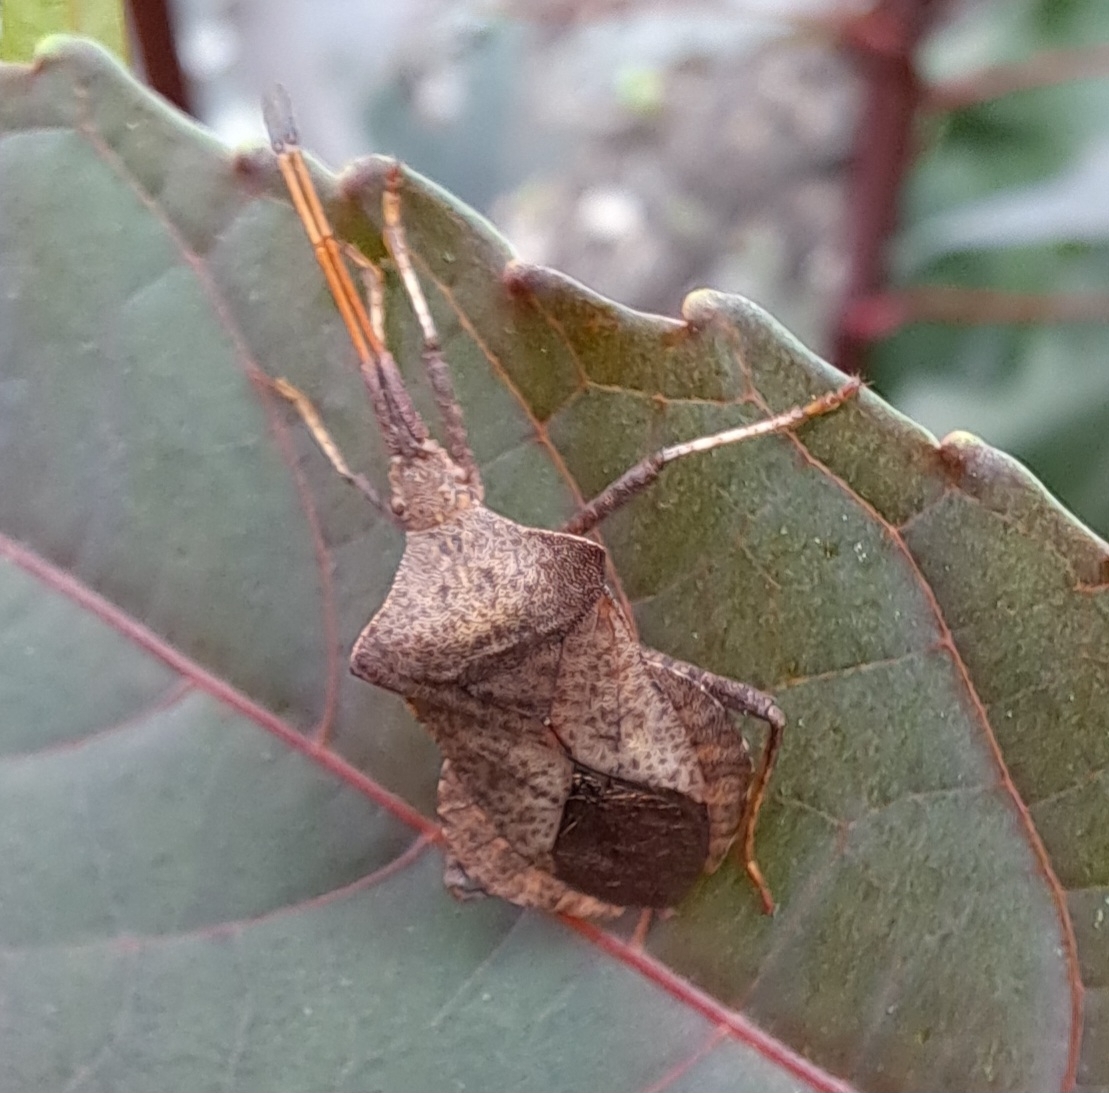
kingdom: Animalia
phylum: Arthropoda
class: Insecta
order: Hemiptera
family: Coreidae
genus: Coreus
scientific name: Coreus marginatus
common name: Dock bug
